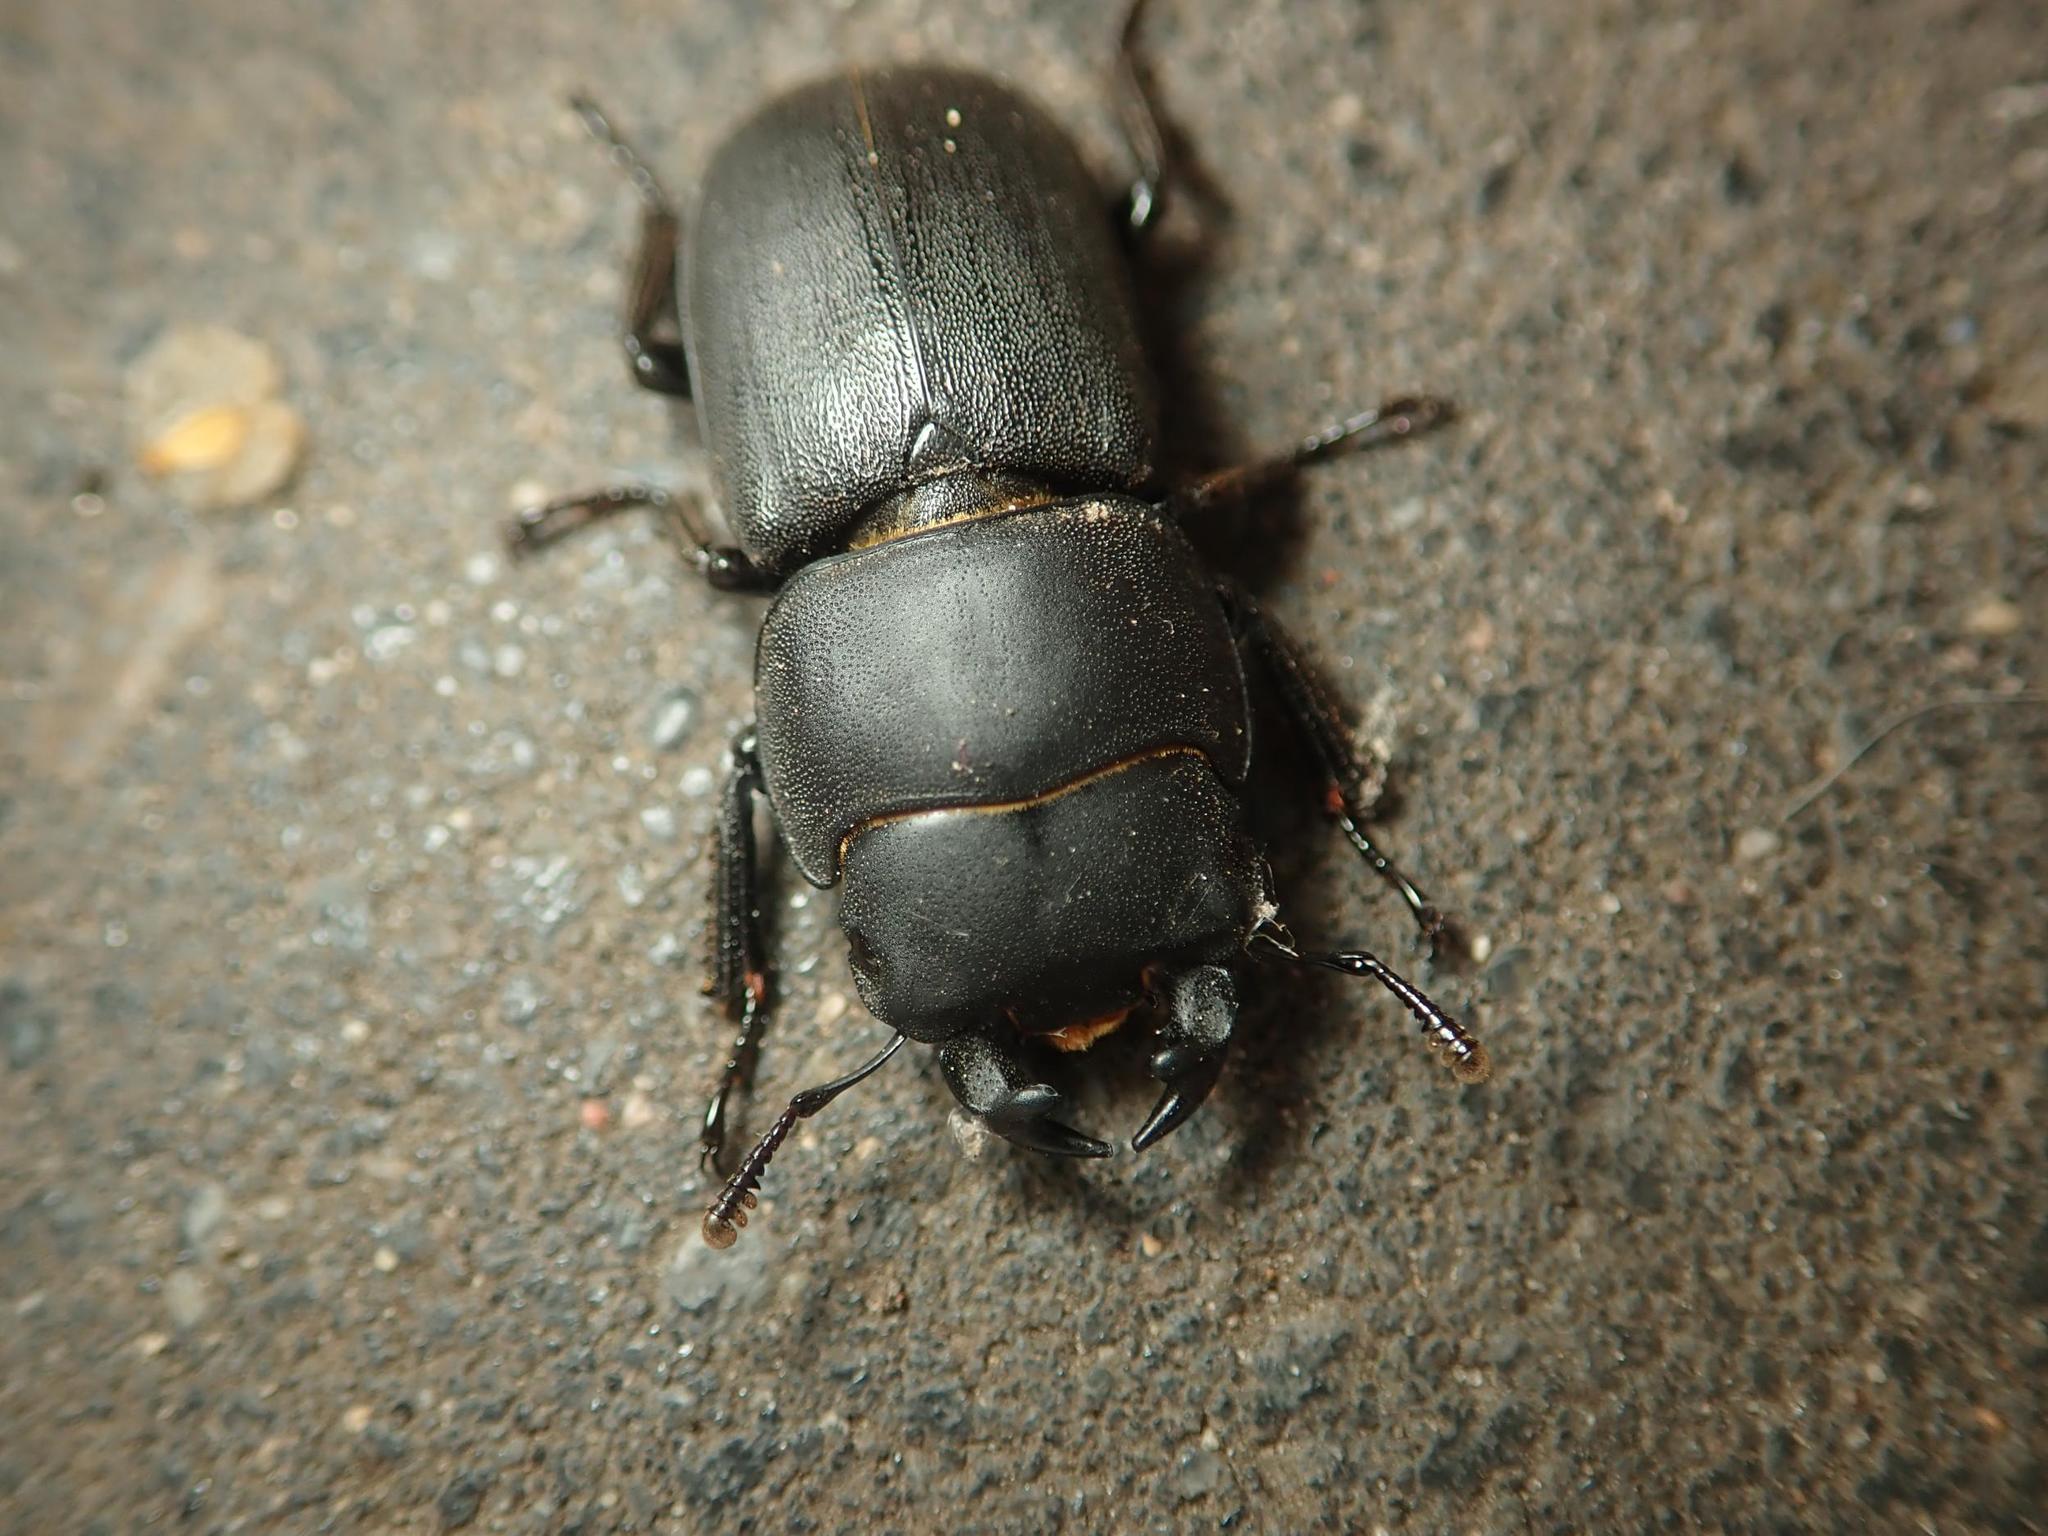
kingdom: Animalia
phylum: Arthropoda
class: Insecta
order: Coleoptera
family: Lucanidae
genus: Dorcus
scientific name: Dorcus parallelipipedus
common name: Lesser stag beetle
